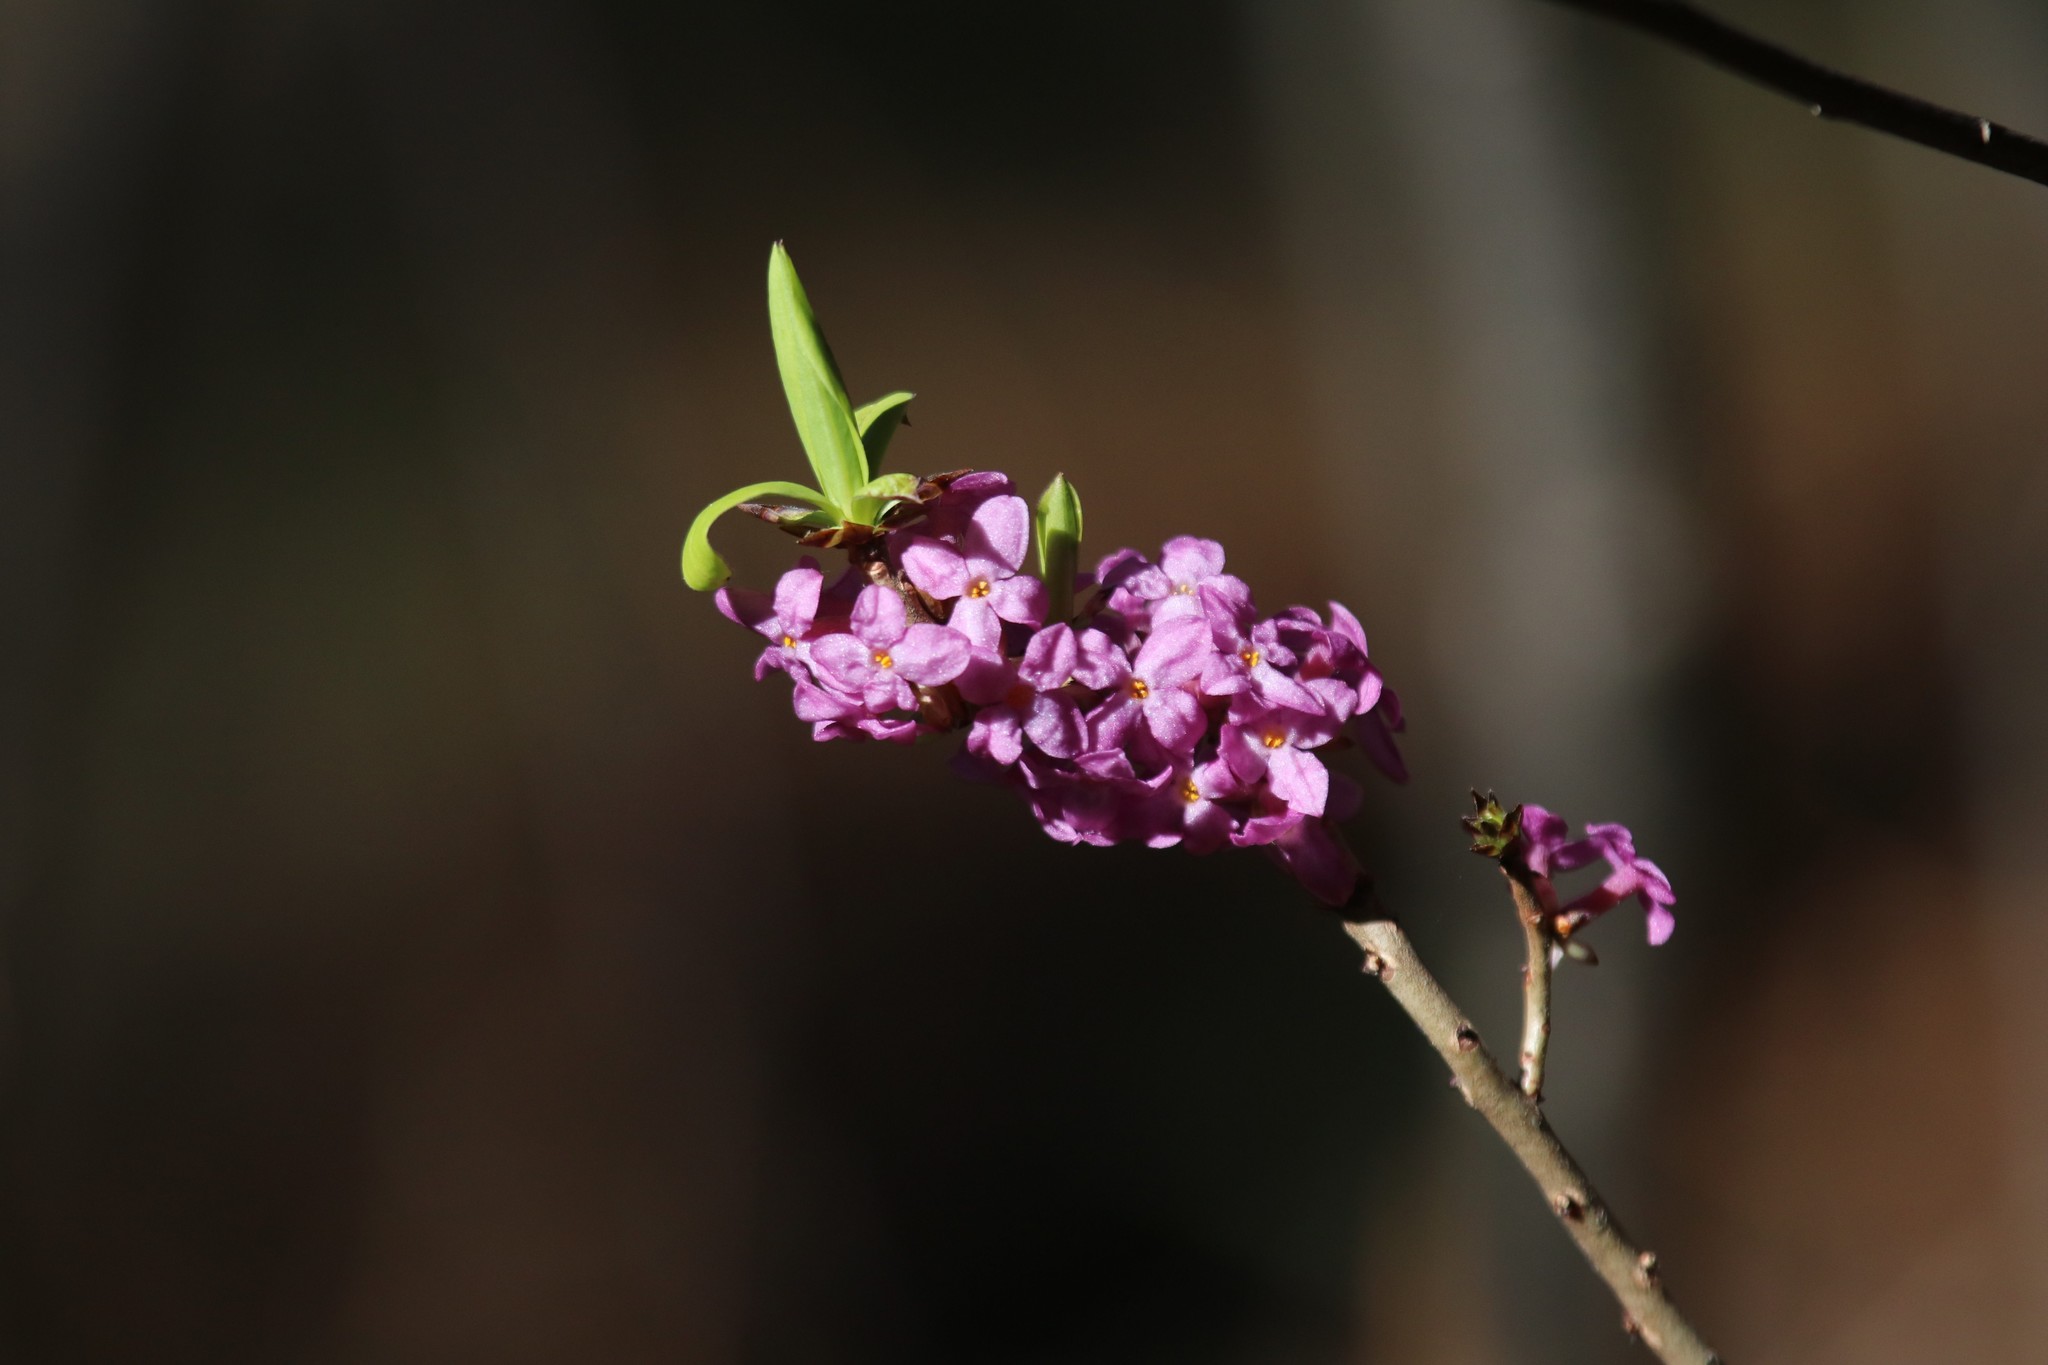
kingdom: Plantae
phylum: Tracheophyta
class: Magnoliopsida
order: Malvales
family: Thymelaeaceae
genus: Daphne
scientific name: Daphne mezereum
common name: Mezereon
